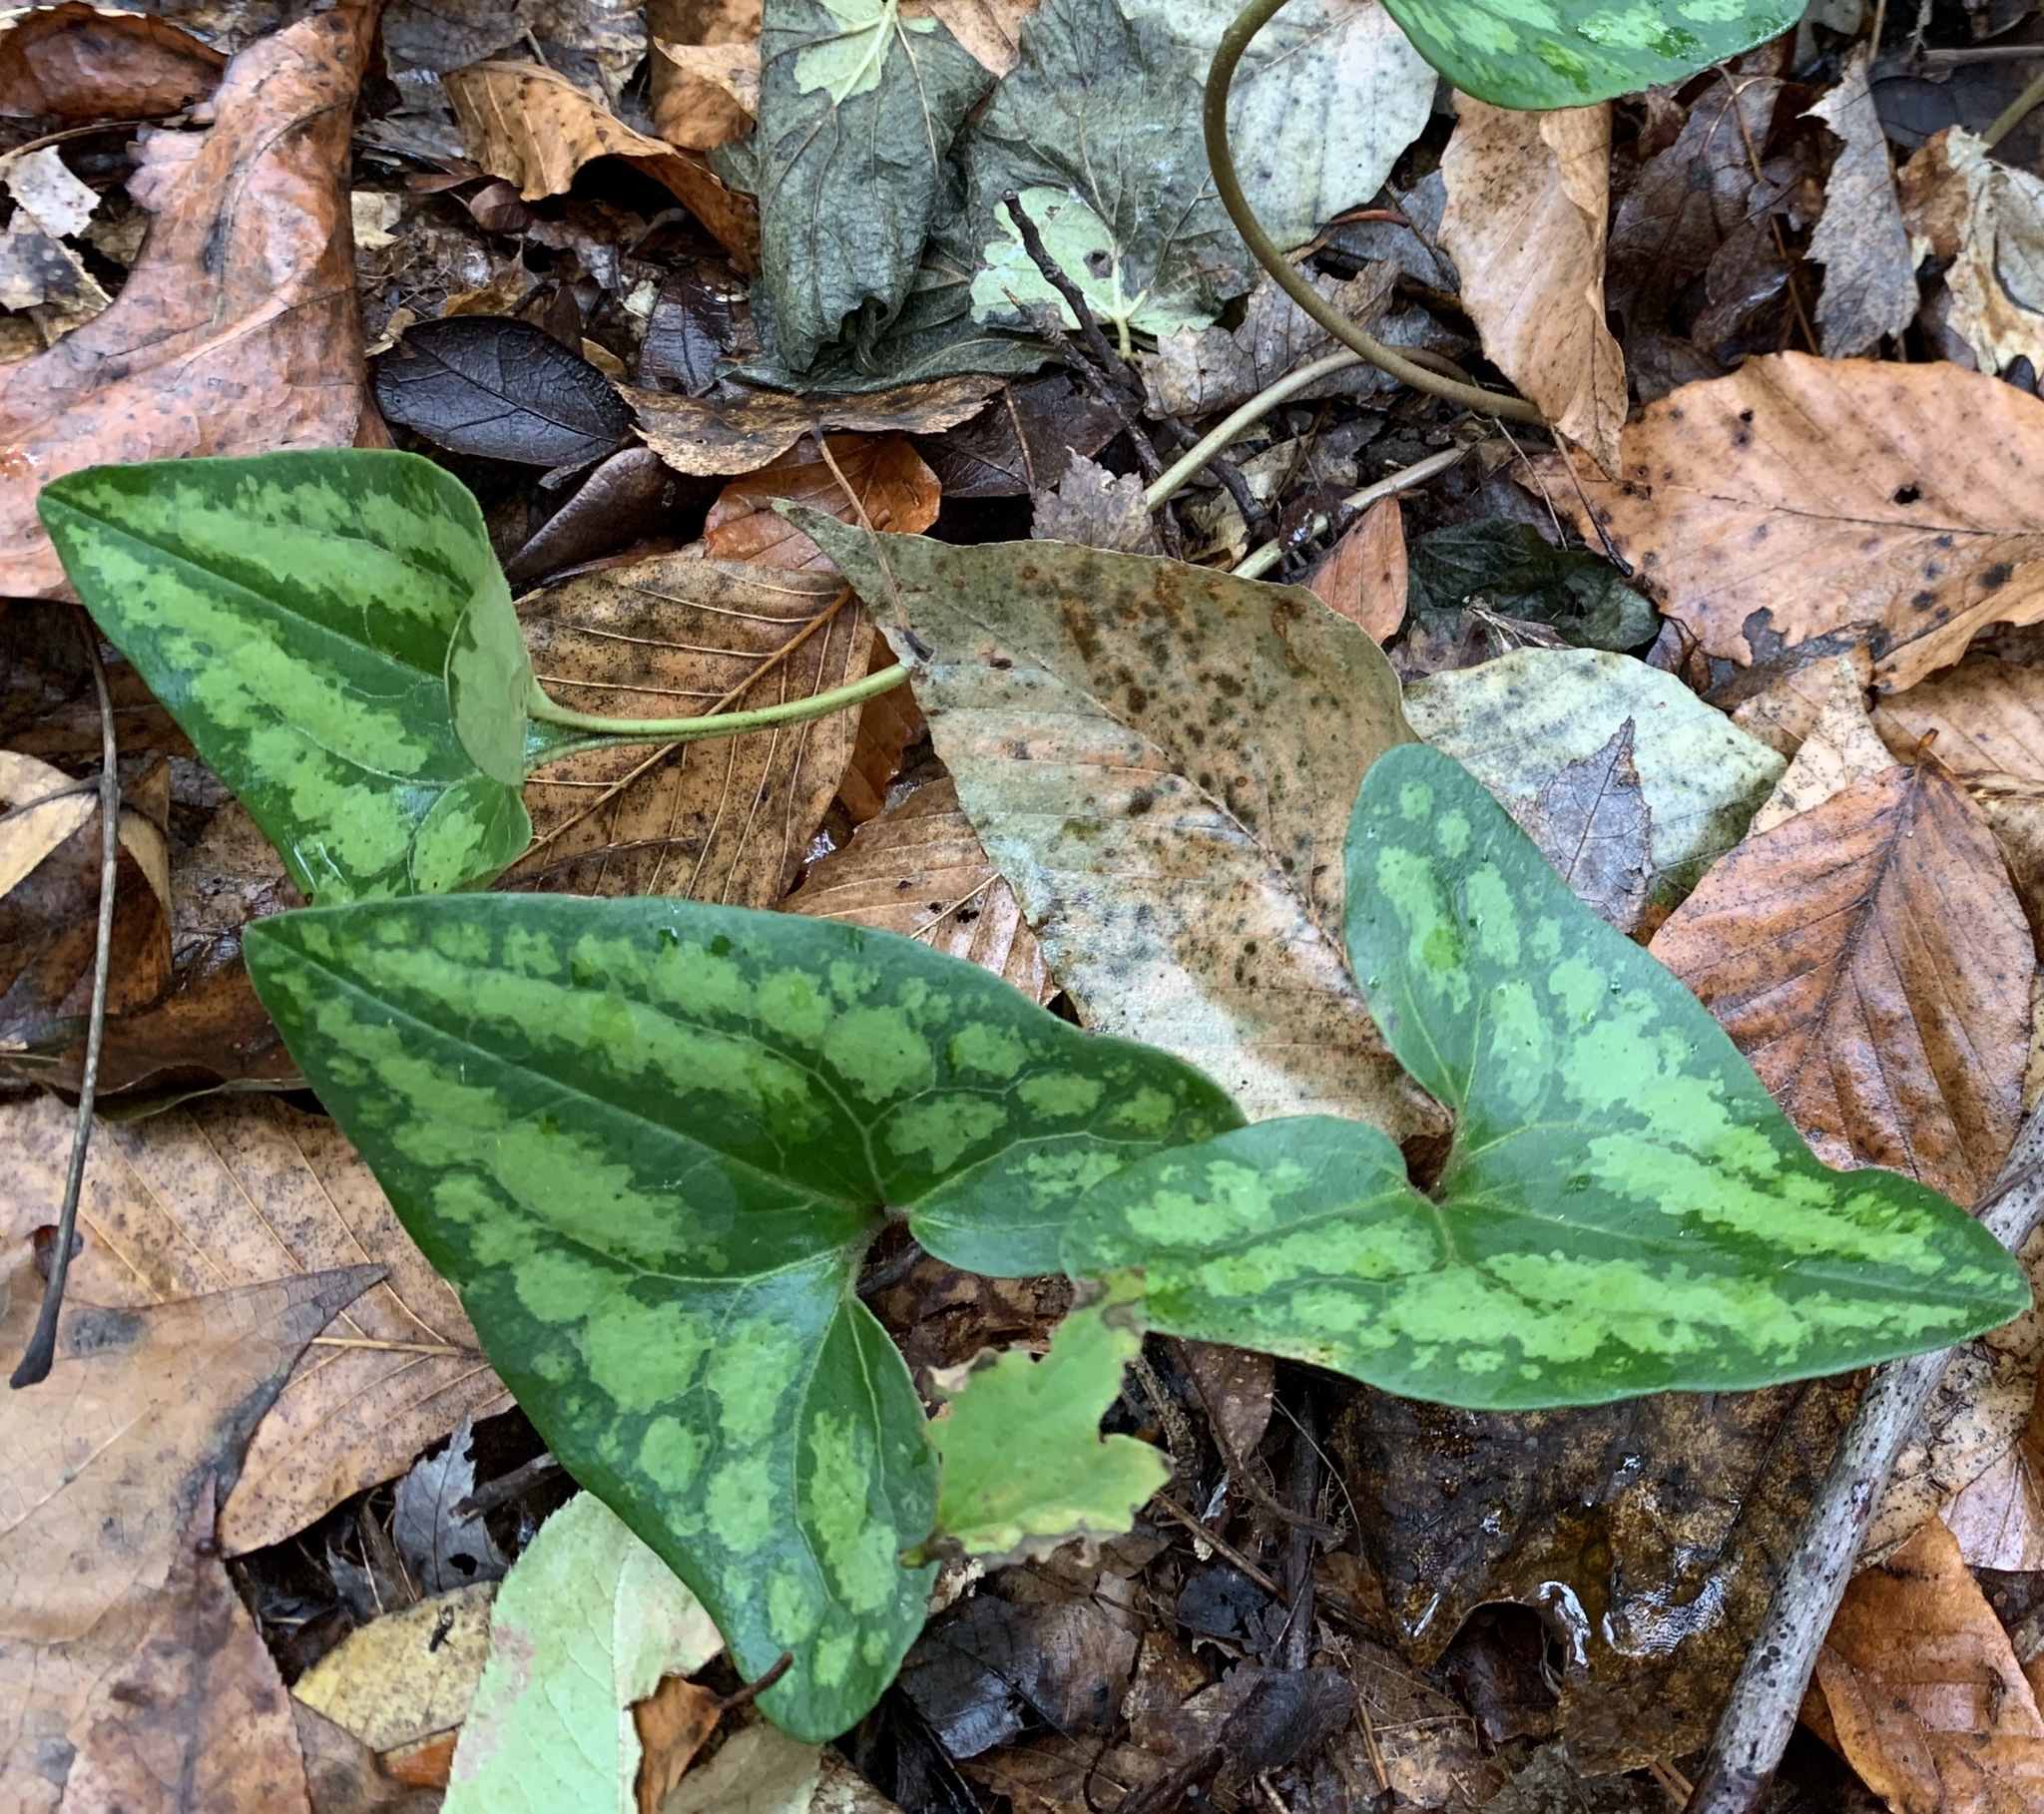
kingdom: Plantae
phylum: Tracheophyta
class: Magnoliopsida
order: Piperales
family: Aristolochiaceae
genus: Hexastylis
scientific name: Hexastylis arifolia
